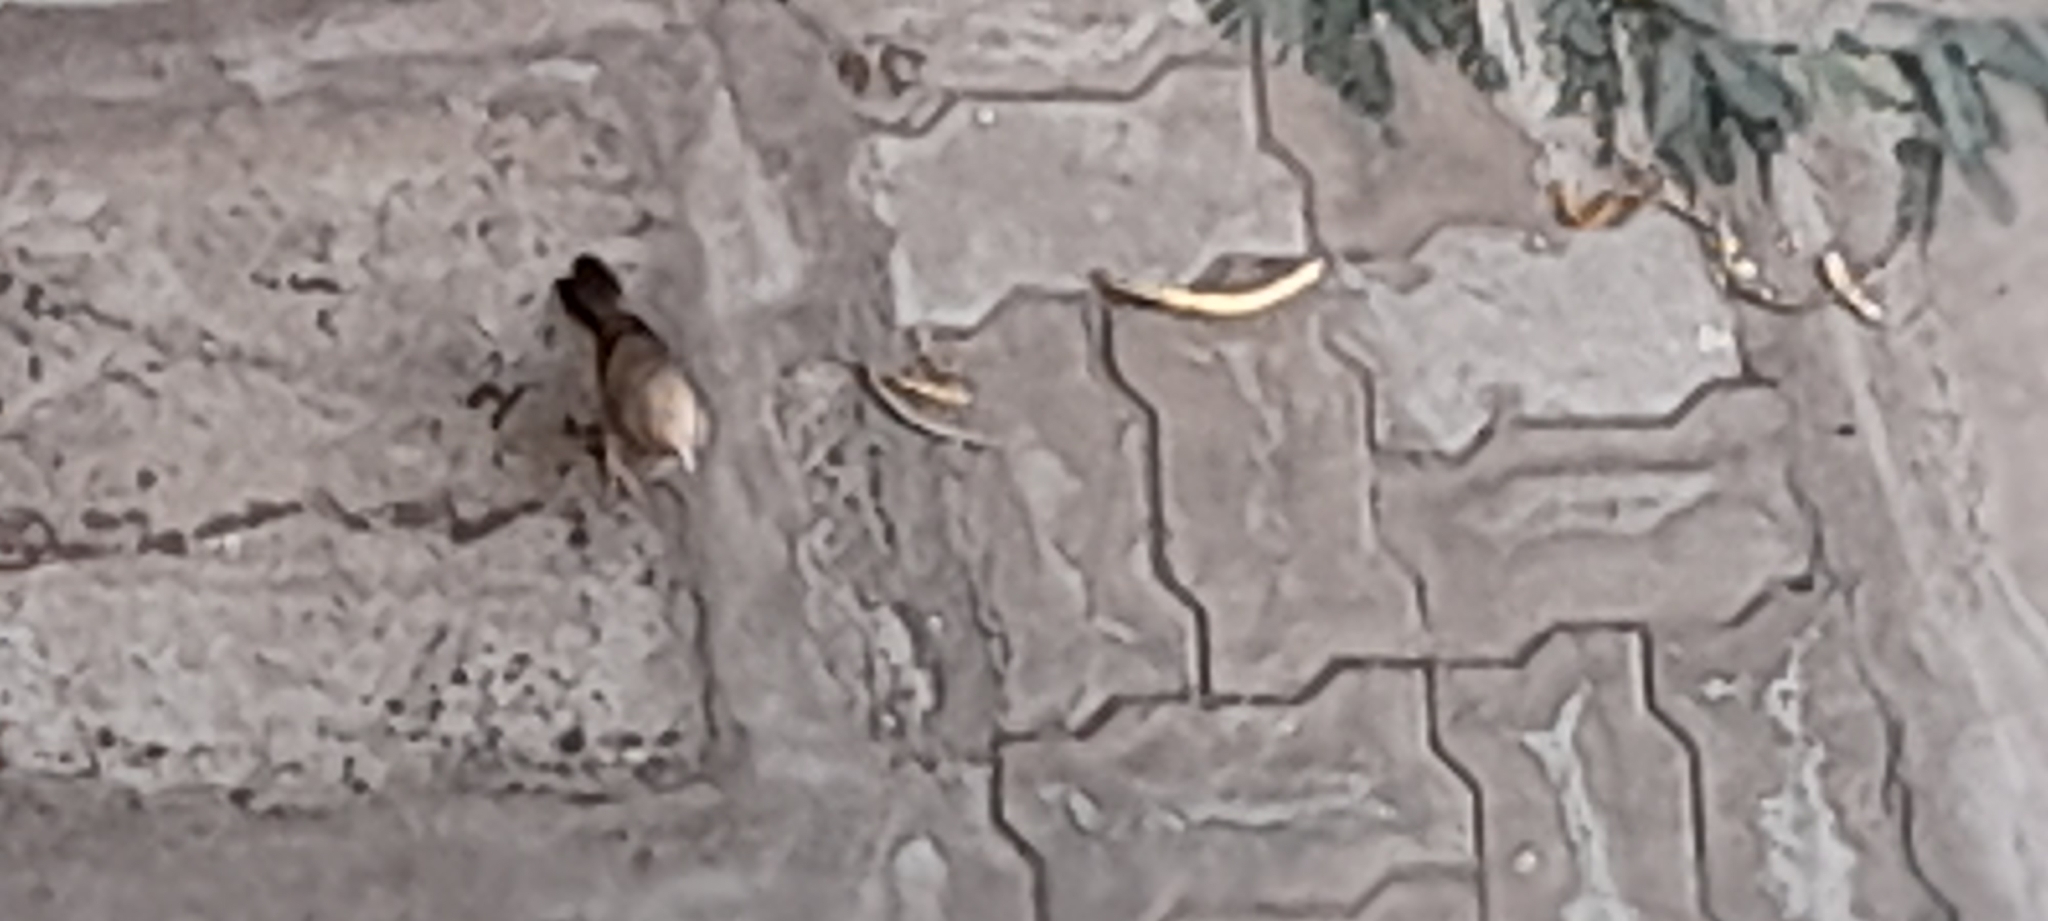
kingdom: Animalia
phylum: Chordata
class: Aves
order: Passeriformes
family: Leiothrichidae
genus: Turdoides
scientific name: Turdoides affinis
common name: Yellow-billed babbler
